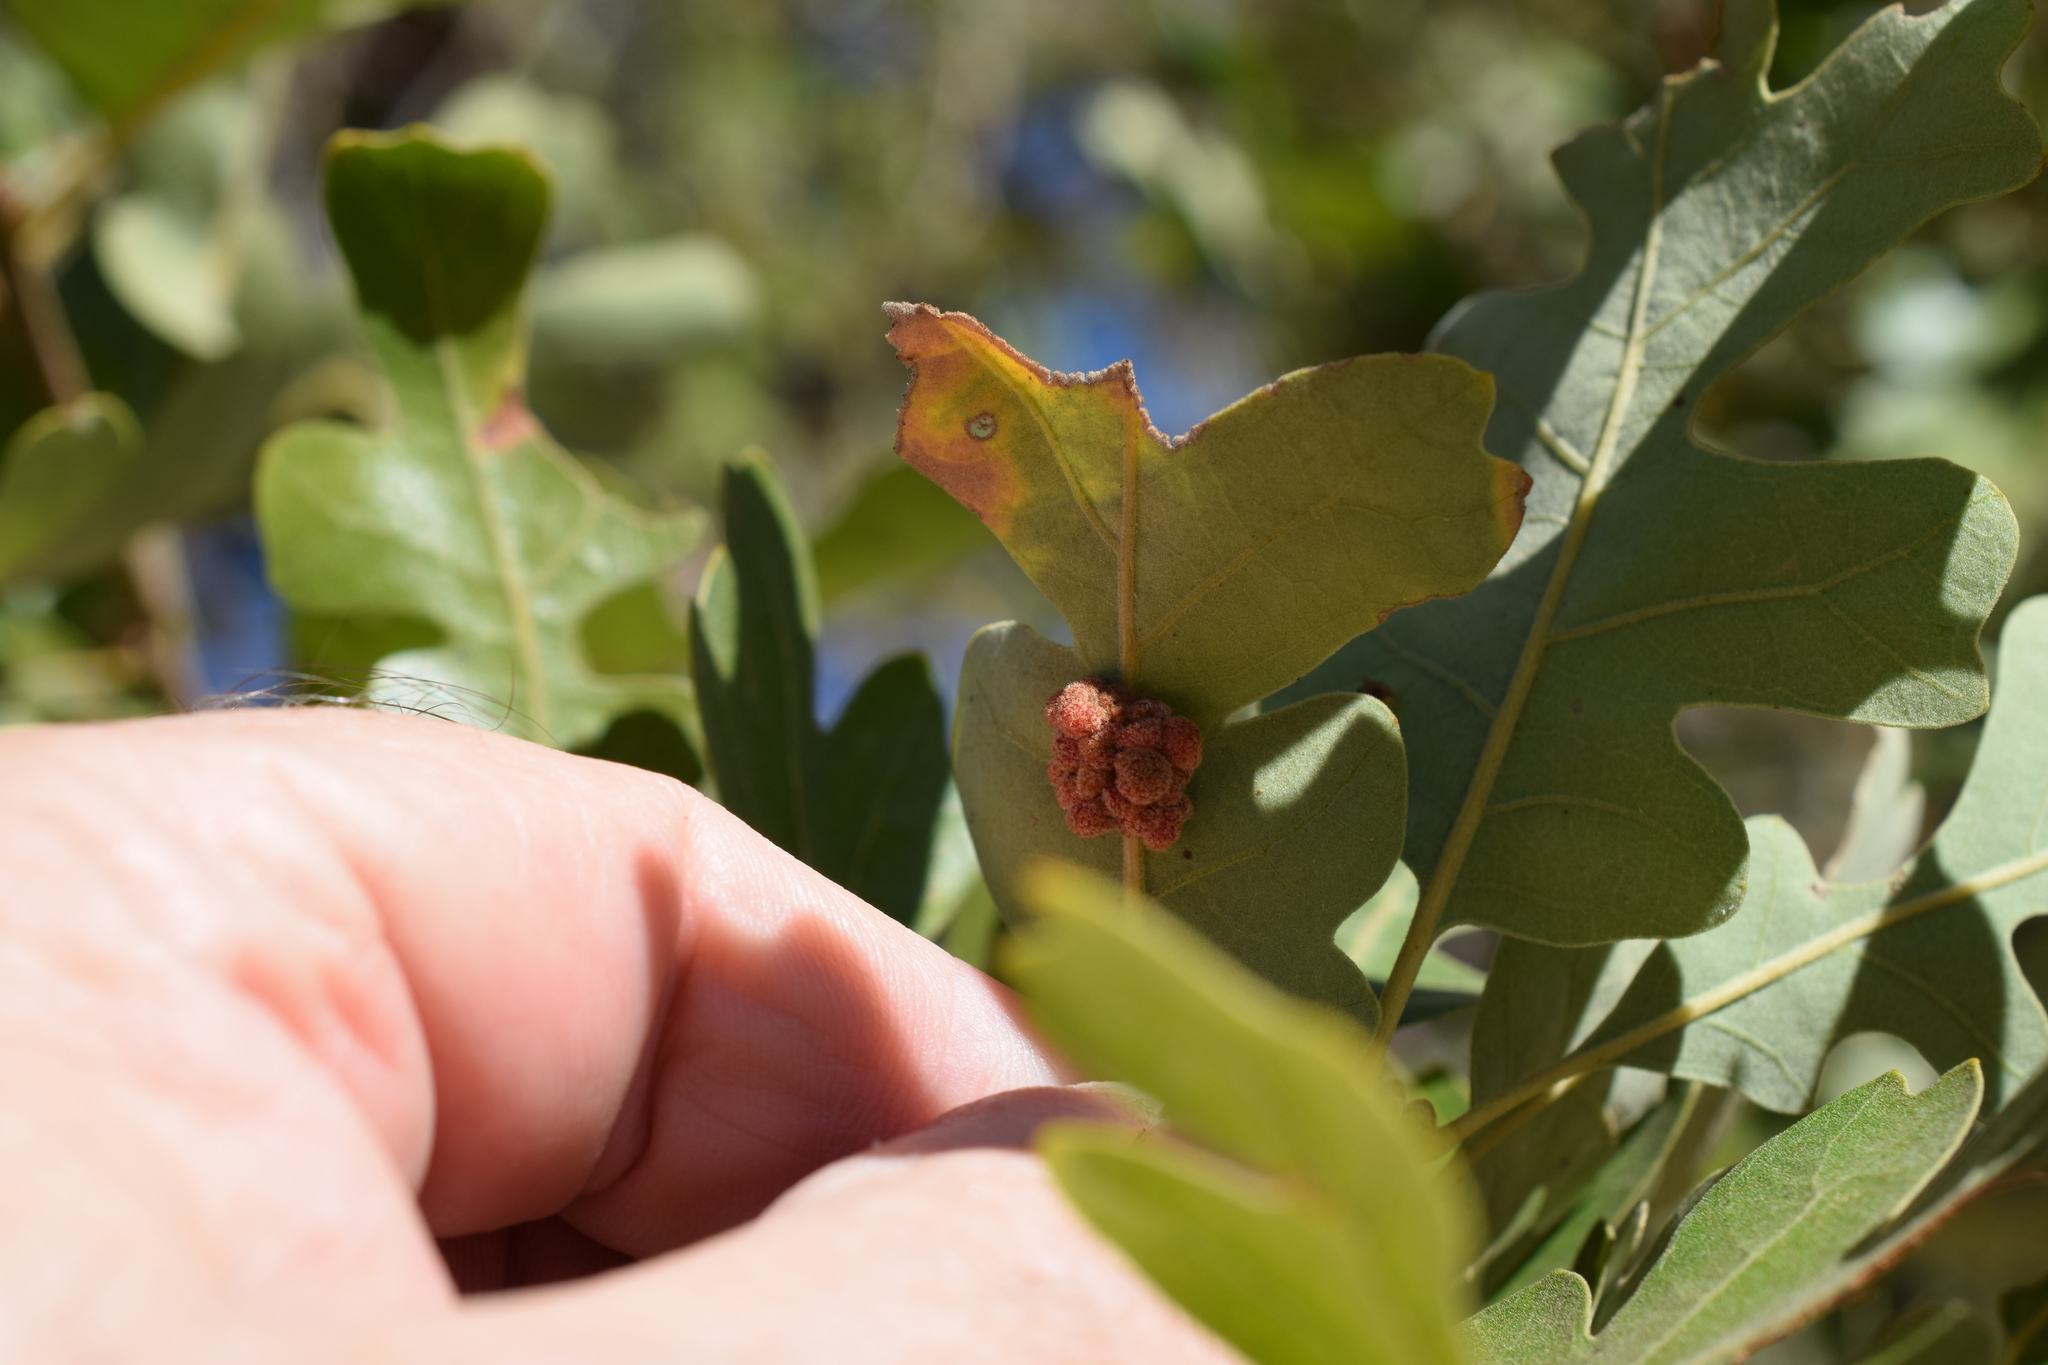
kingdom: Animalia
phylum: Arthropoda
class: Insecta
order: Hymenoptera
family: Cynipidae
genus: Andricus
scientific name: Andricus
